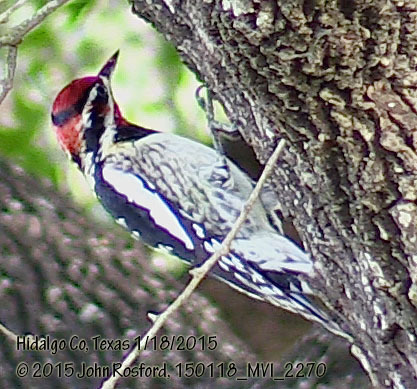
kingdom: Animalia
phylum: Chordata
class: Aves
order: Piciformes
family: Picidae
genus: Sphyrapicus
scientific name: Sphyrapicus nuchalis
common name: Red-naped sapsucker
